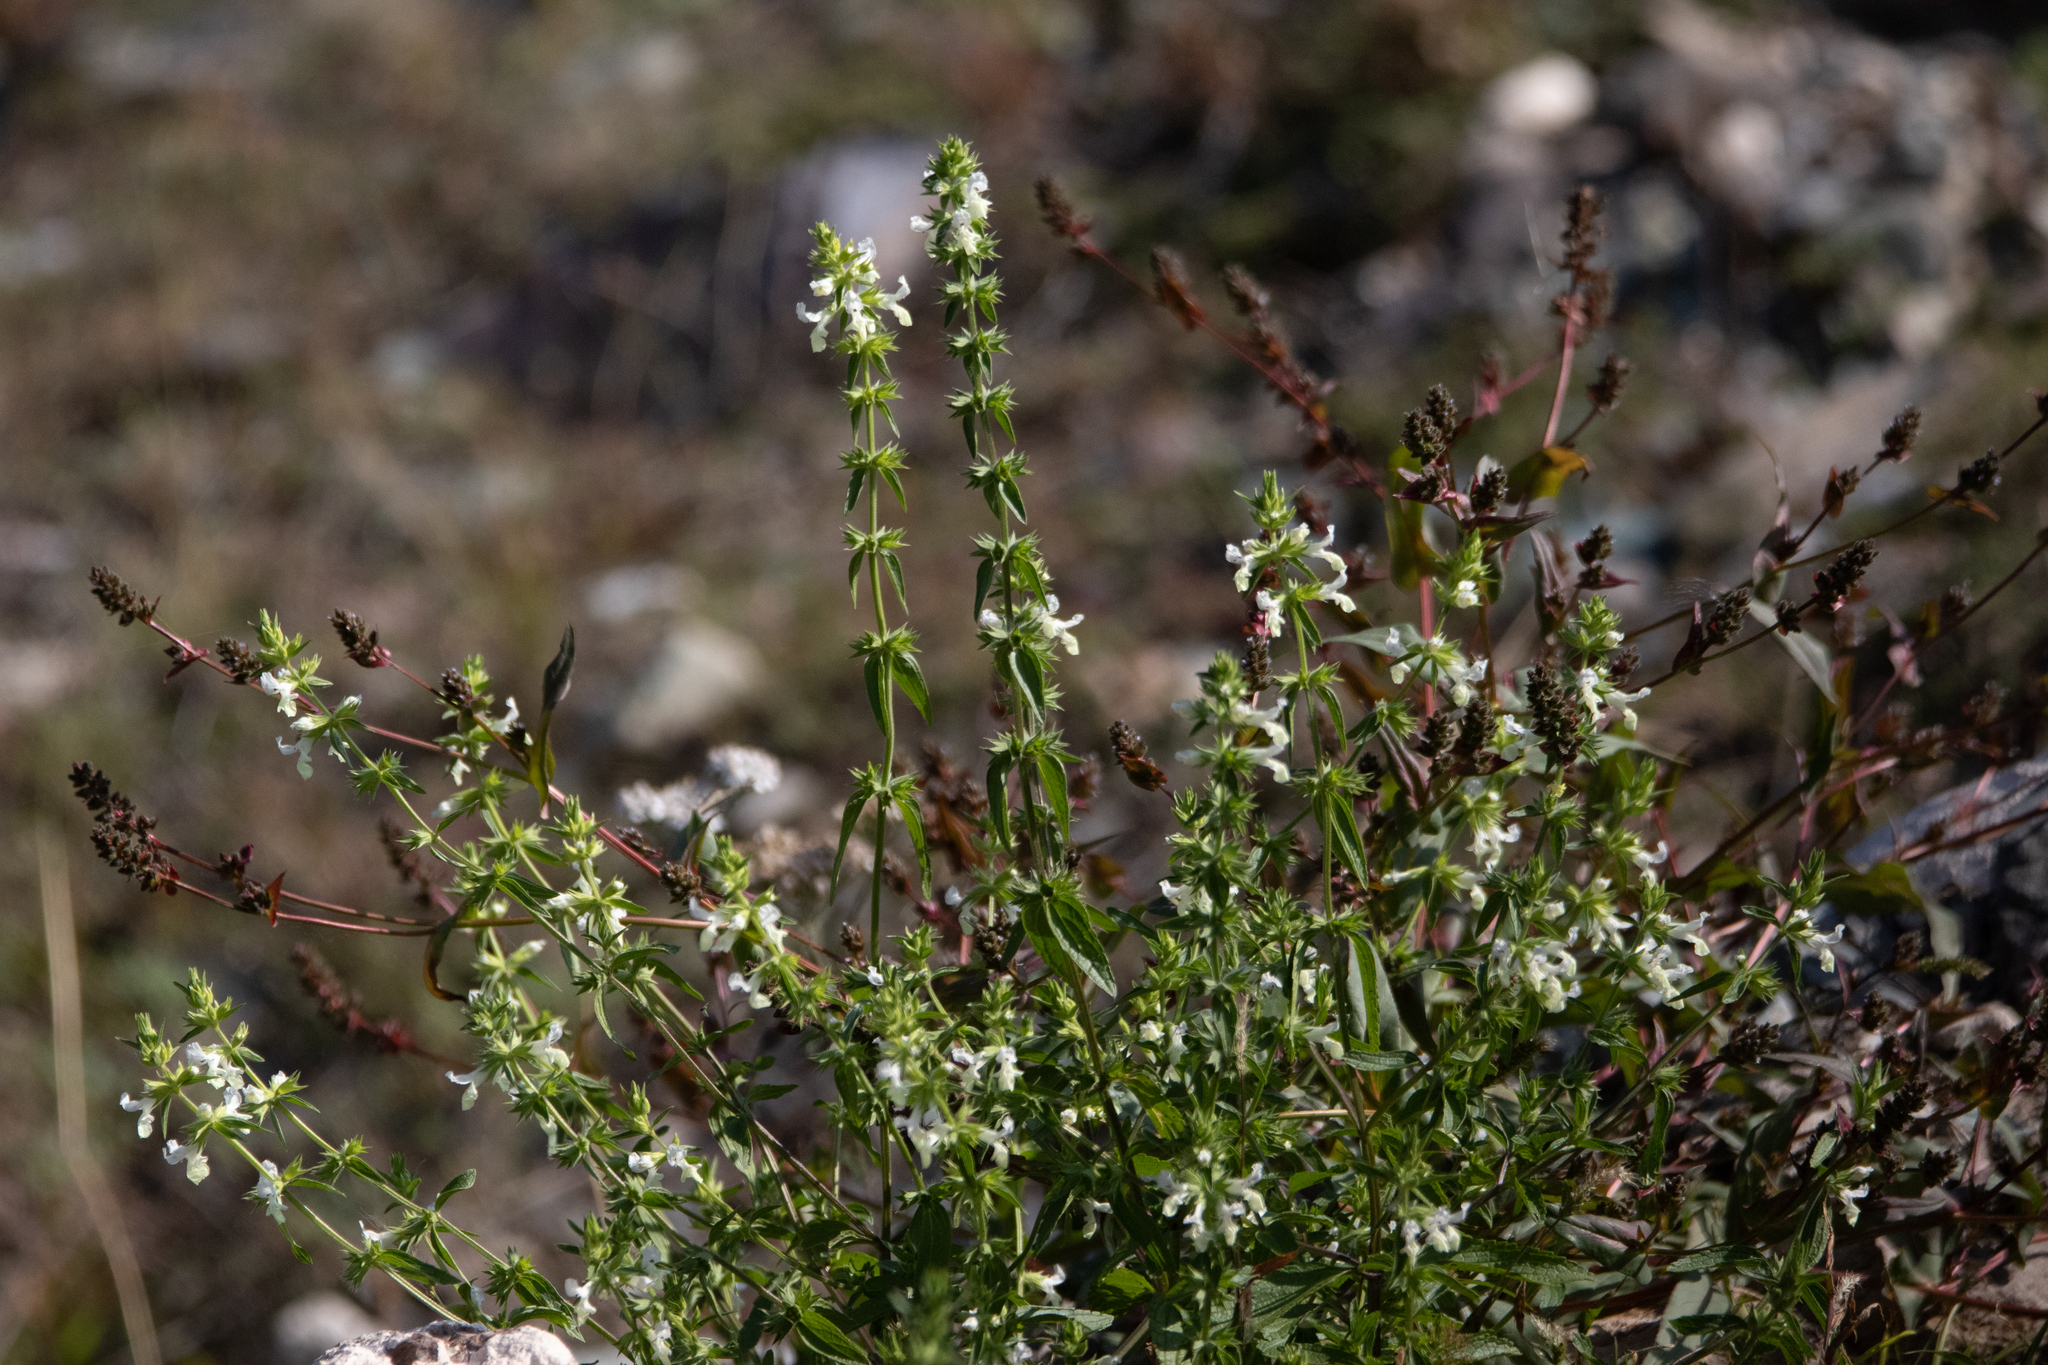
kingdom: Plantae
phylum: Tracheophyta
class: Magnoliopsida
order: Lamiales
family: Lamiaceae
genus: Stachys
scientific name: Stachys annua
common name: Annual yellow-woundwort
